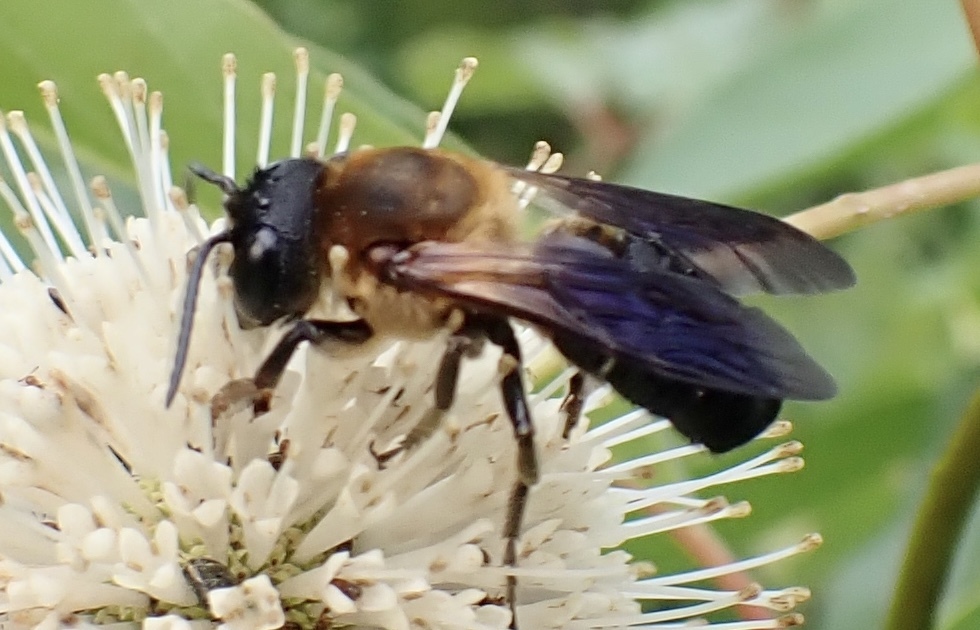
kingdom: Animalia
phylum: Arthropoda
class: Insecta
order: Hymenoptera
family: Megachilidae
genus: Megachile
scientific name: Megachile sculpturalis
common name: Sculptured resin bee
